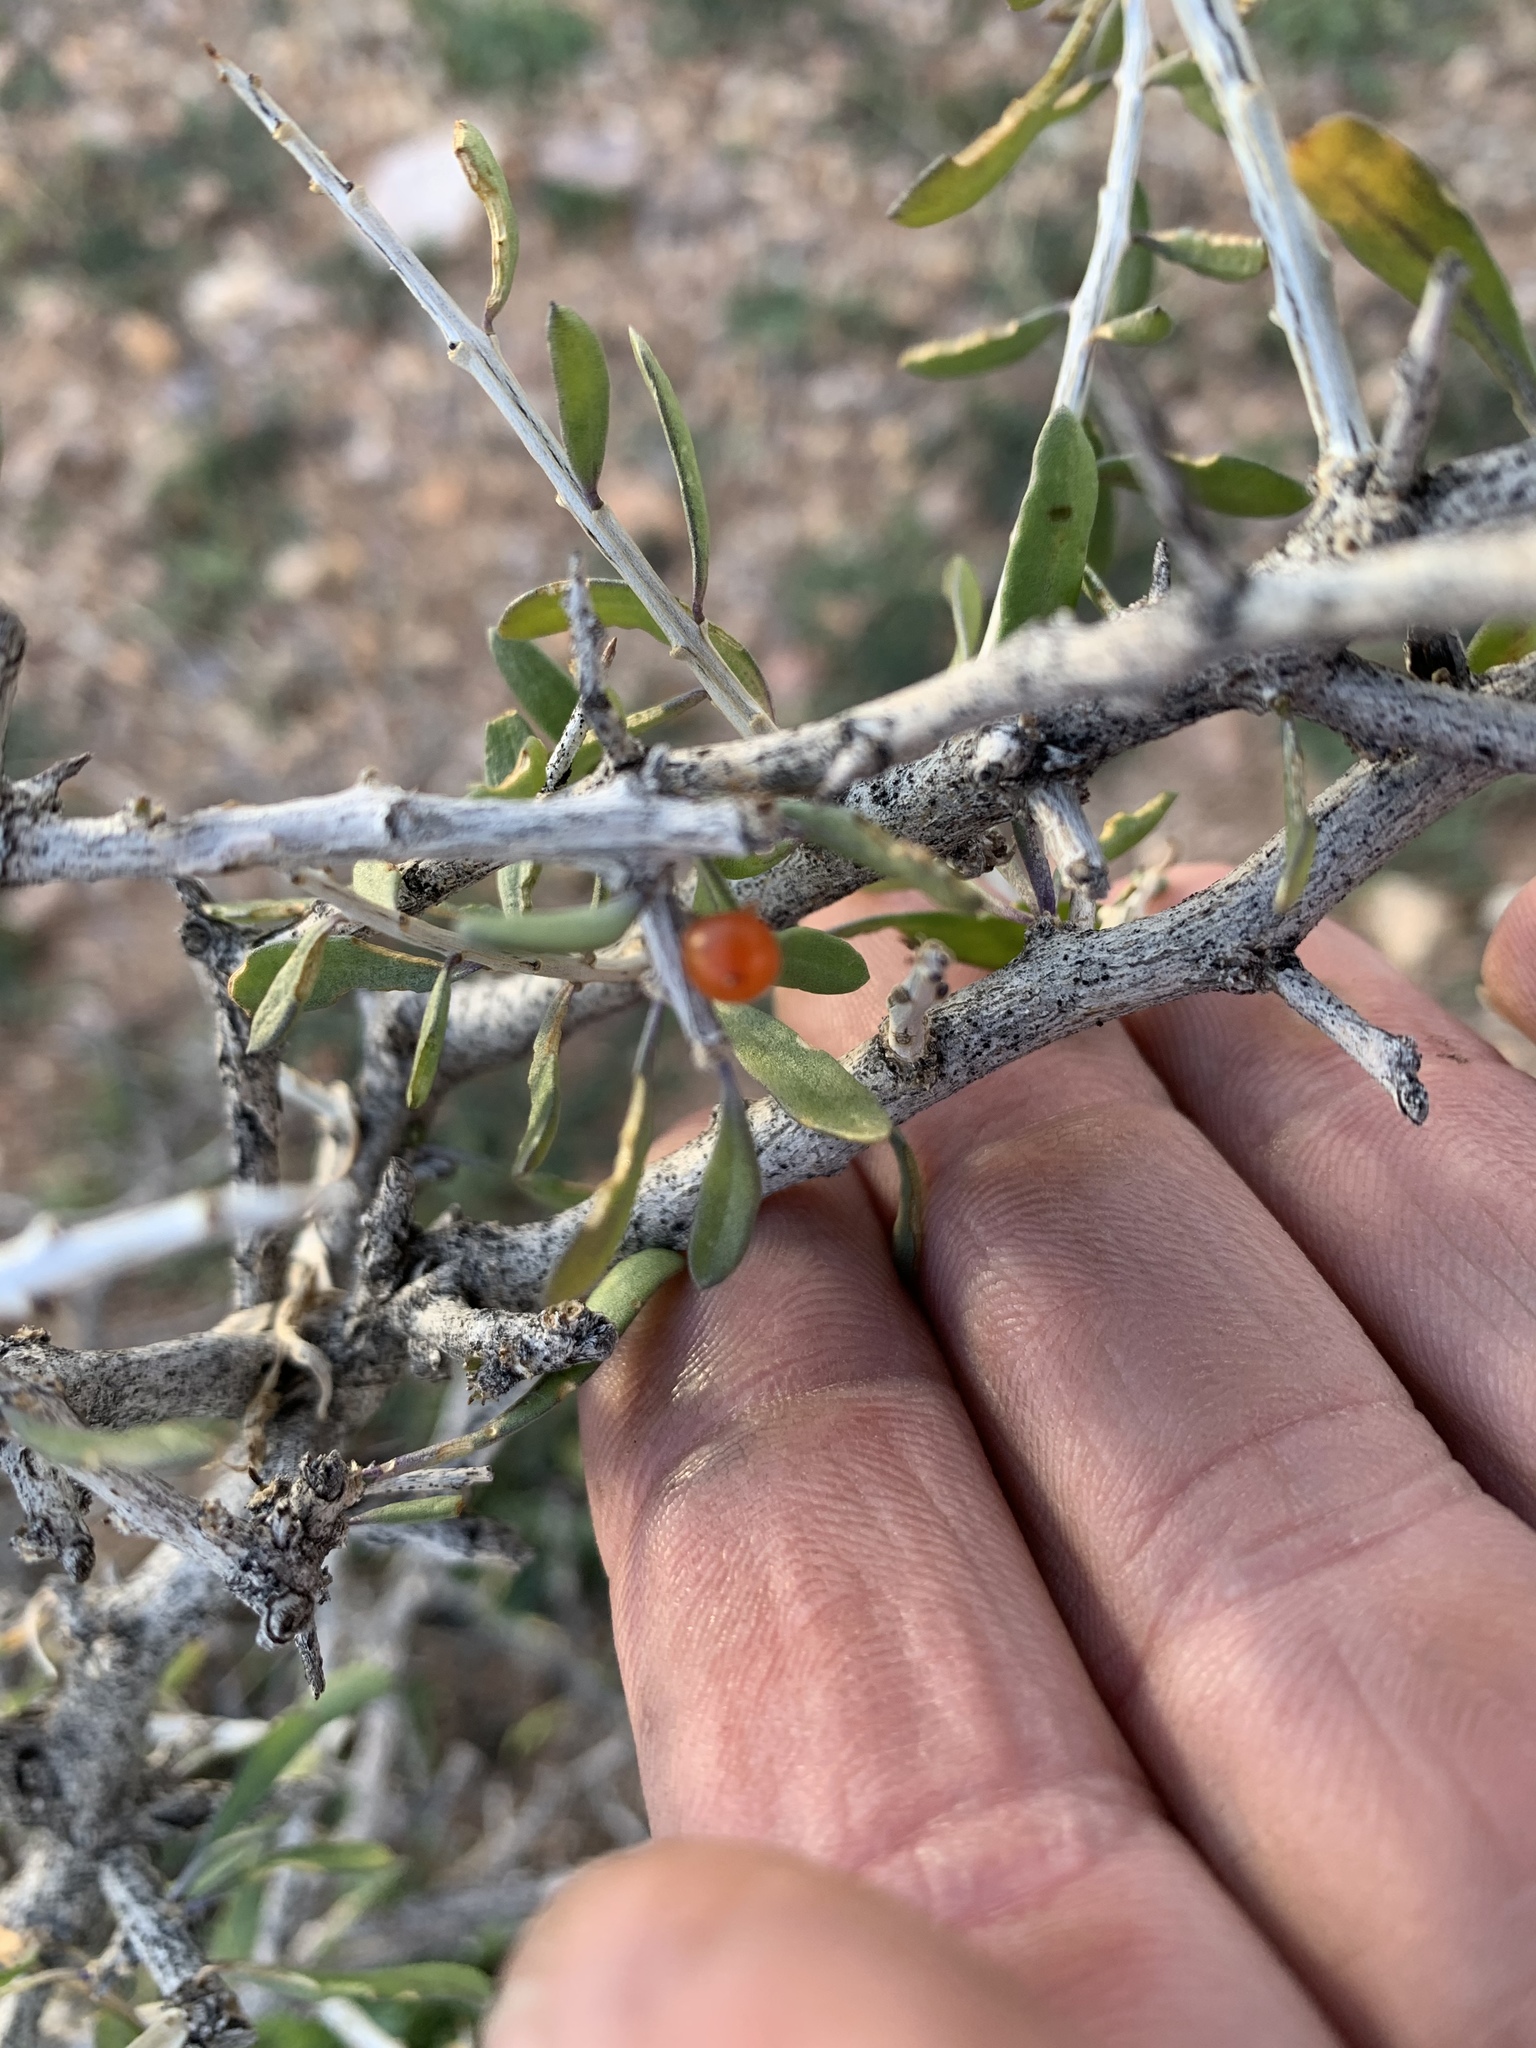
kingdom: Plantae
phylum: Tracheophyta
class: Magnoliopsida
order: Solanales
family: Solanaceae
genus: Lycium
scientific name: Lycium andersonii
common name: Water-jacket
